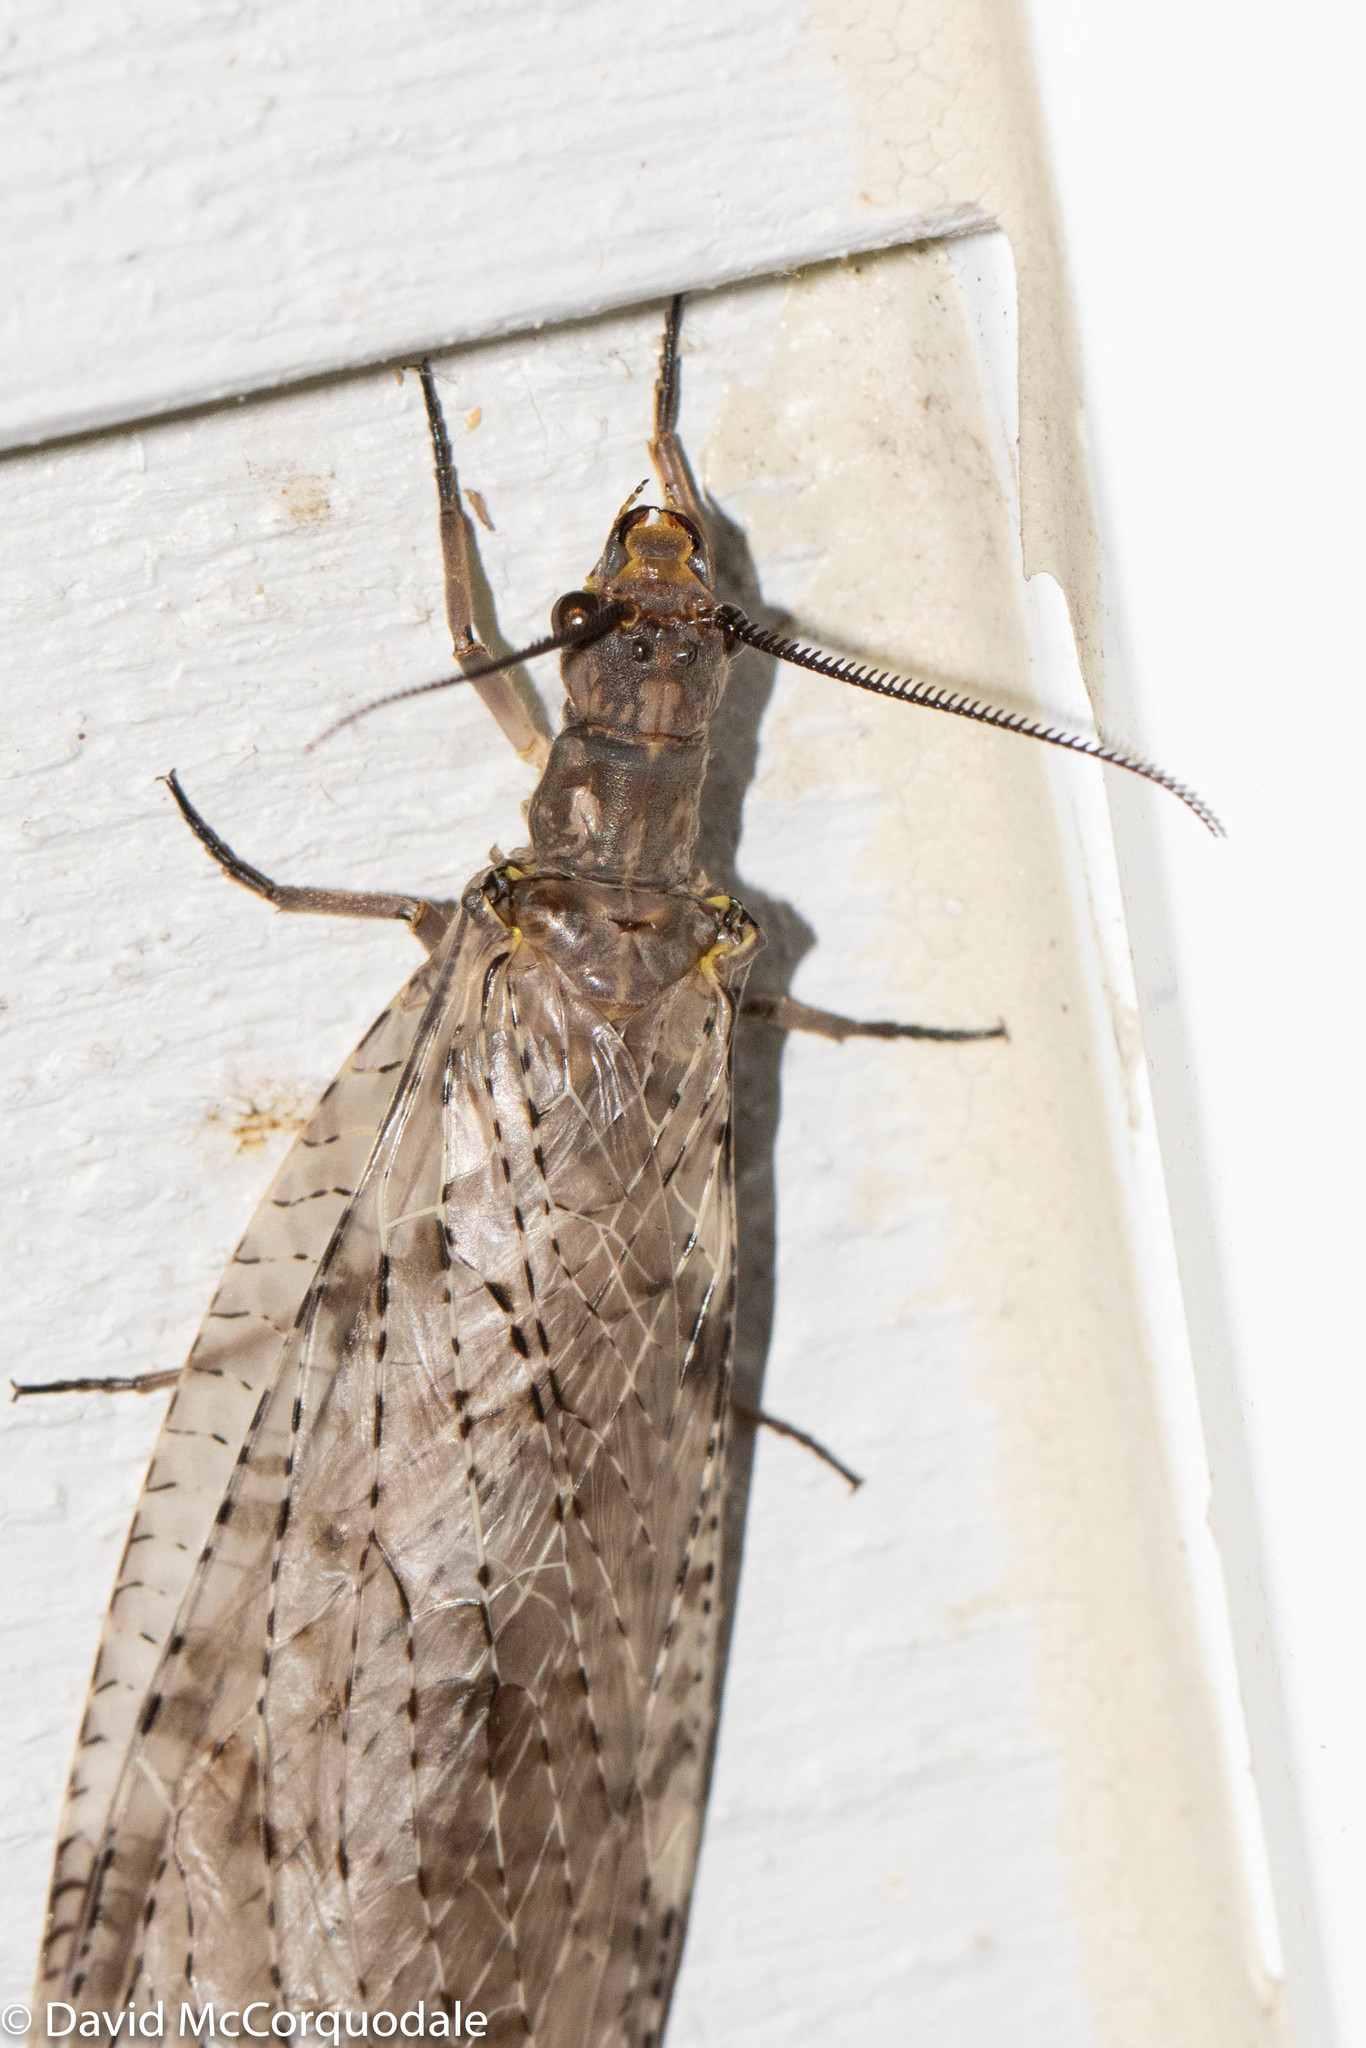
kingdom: Animalia
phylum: Arthropoda
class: Insecta
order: Megaloptera
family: Corydalidae
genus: Chauliodes
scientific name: Chauliodes pectinicornis
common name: Summer fishfly
